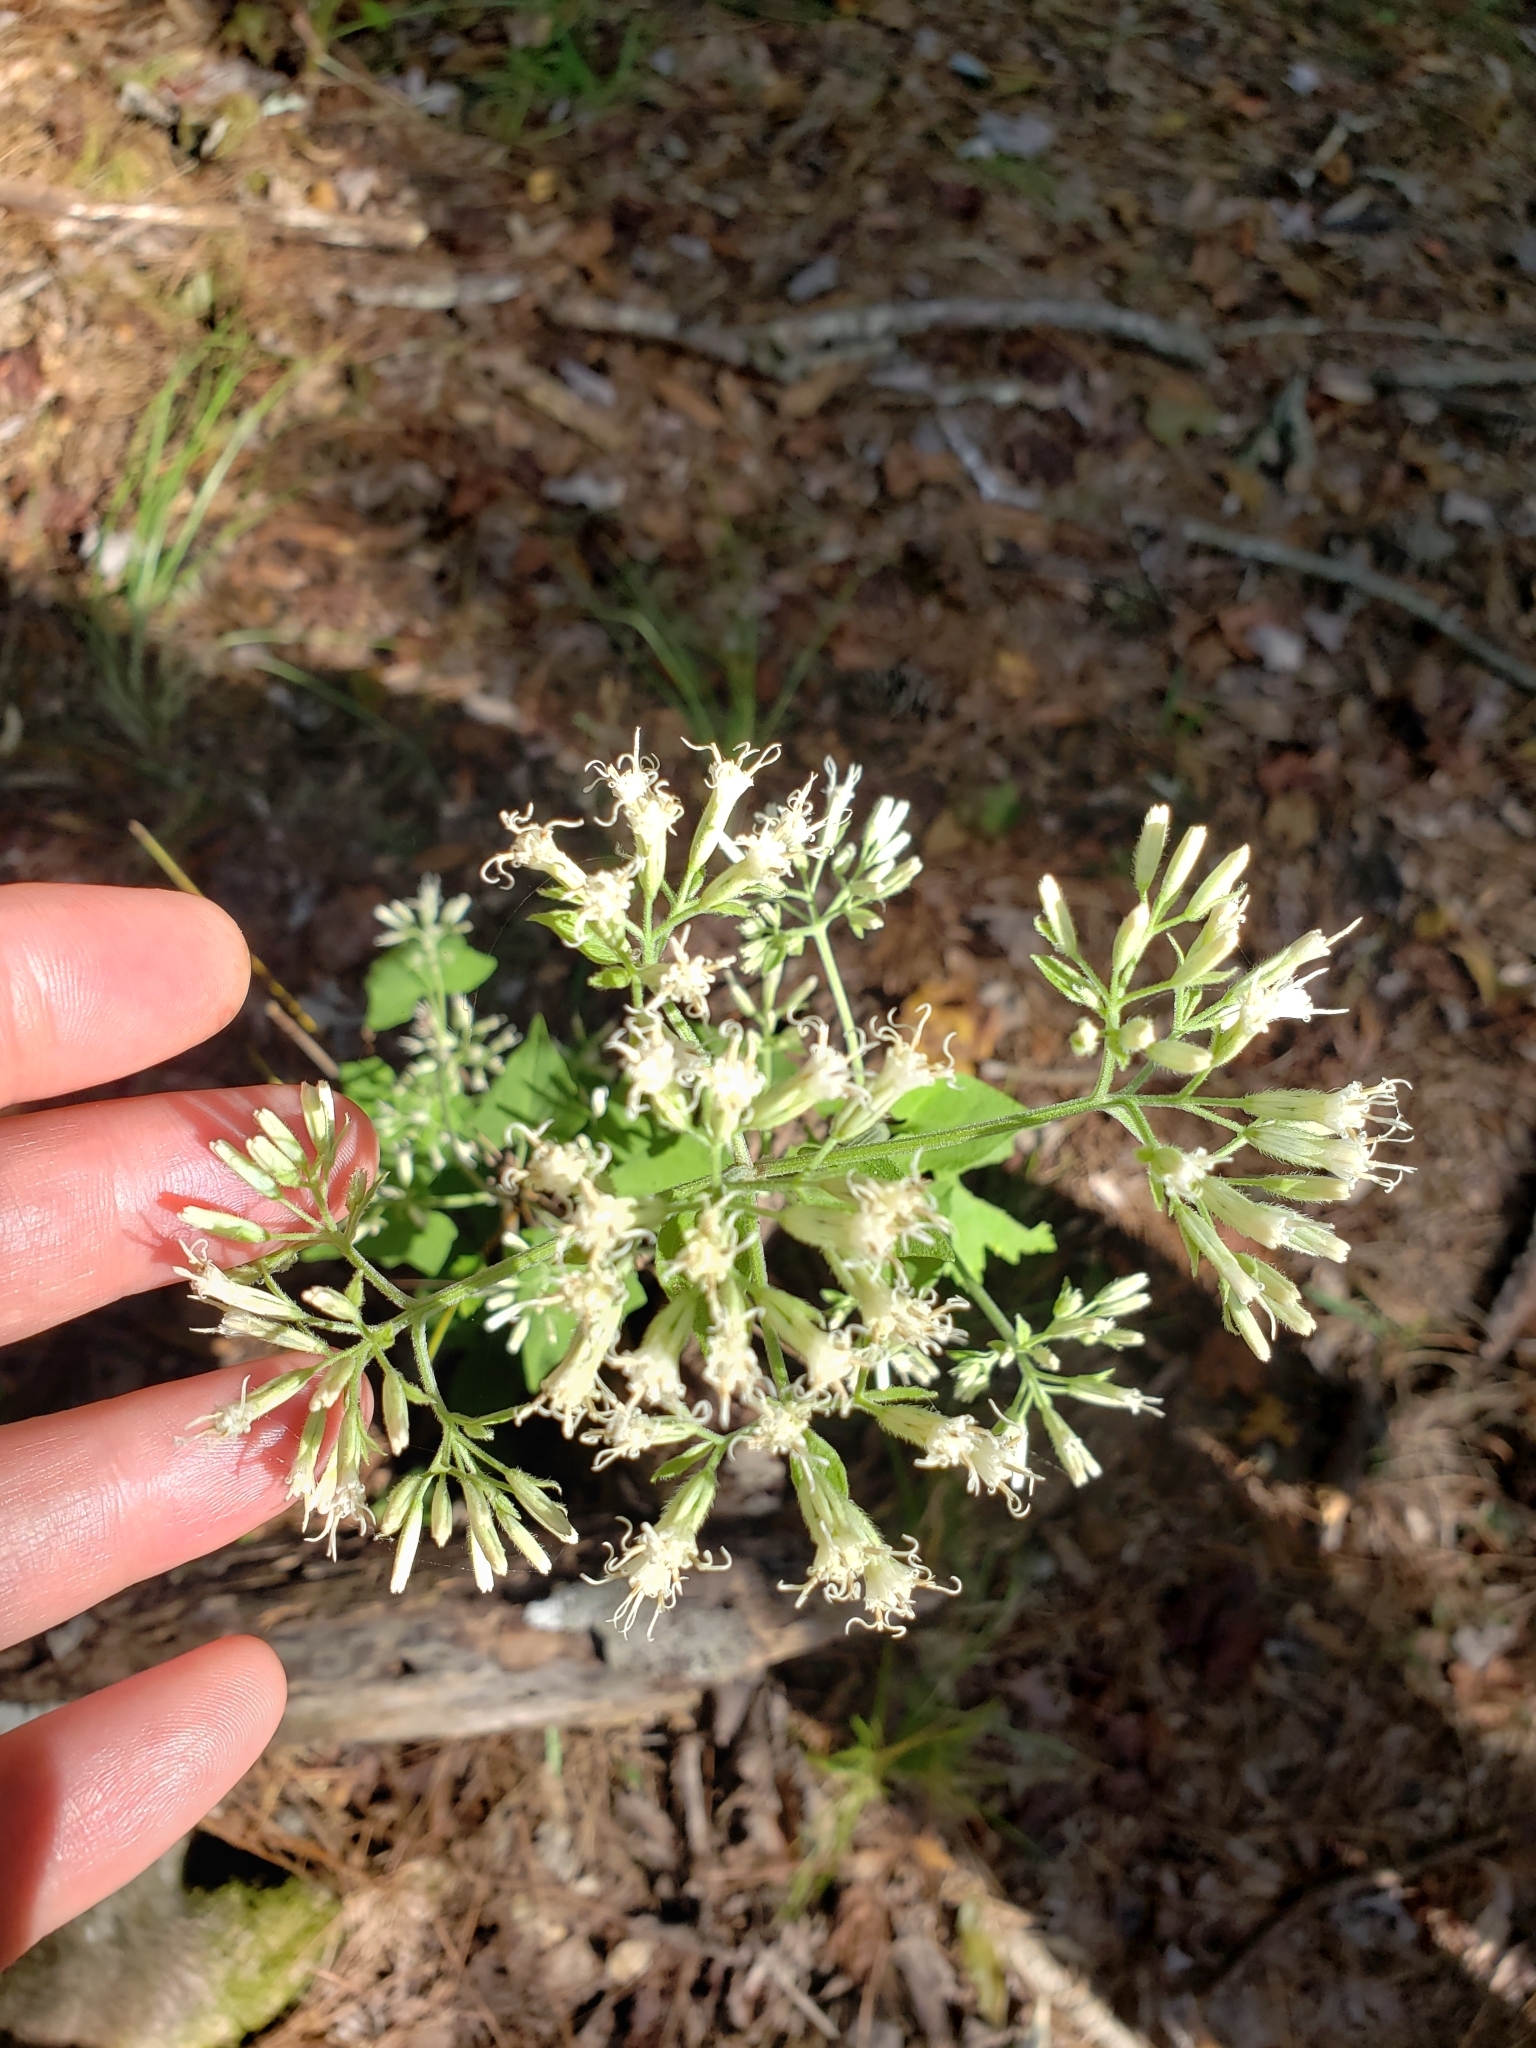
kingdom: Plantae
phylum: Tracheophyta
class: Magnoliopsida
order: Asterales
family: Asteraceae
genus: Mikania
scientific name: Mikania scandens
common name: Climbing hempvine
